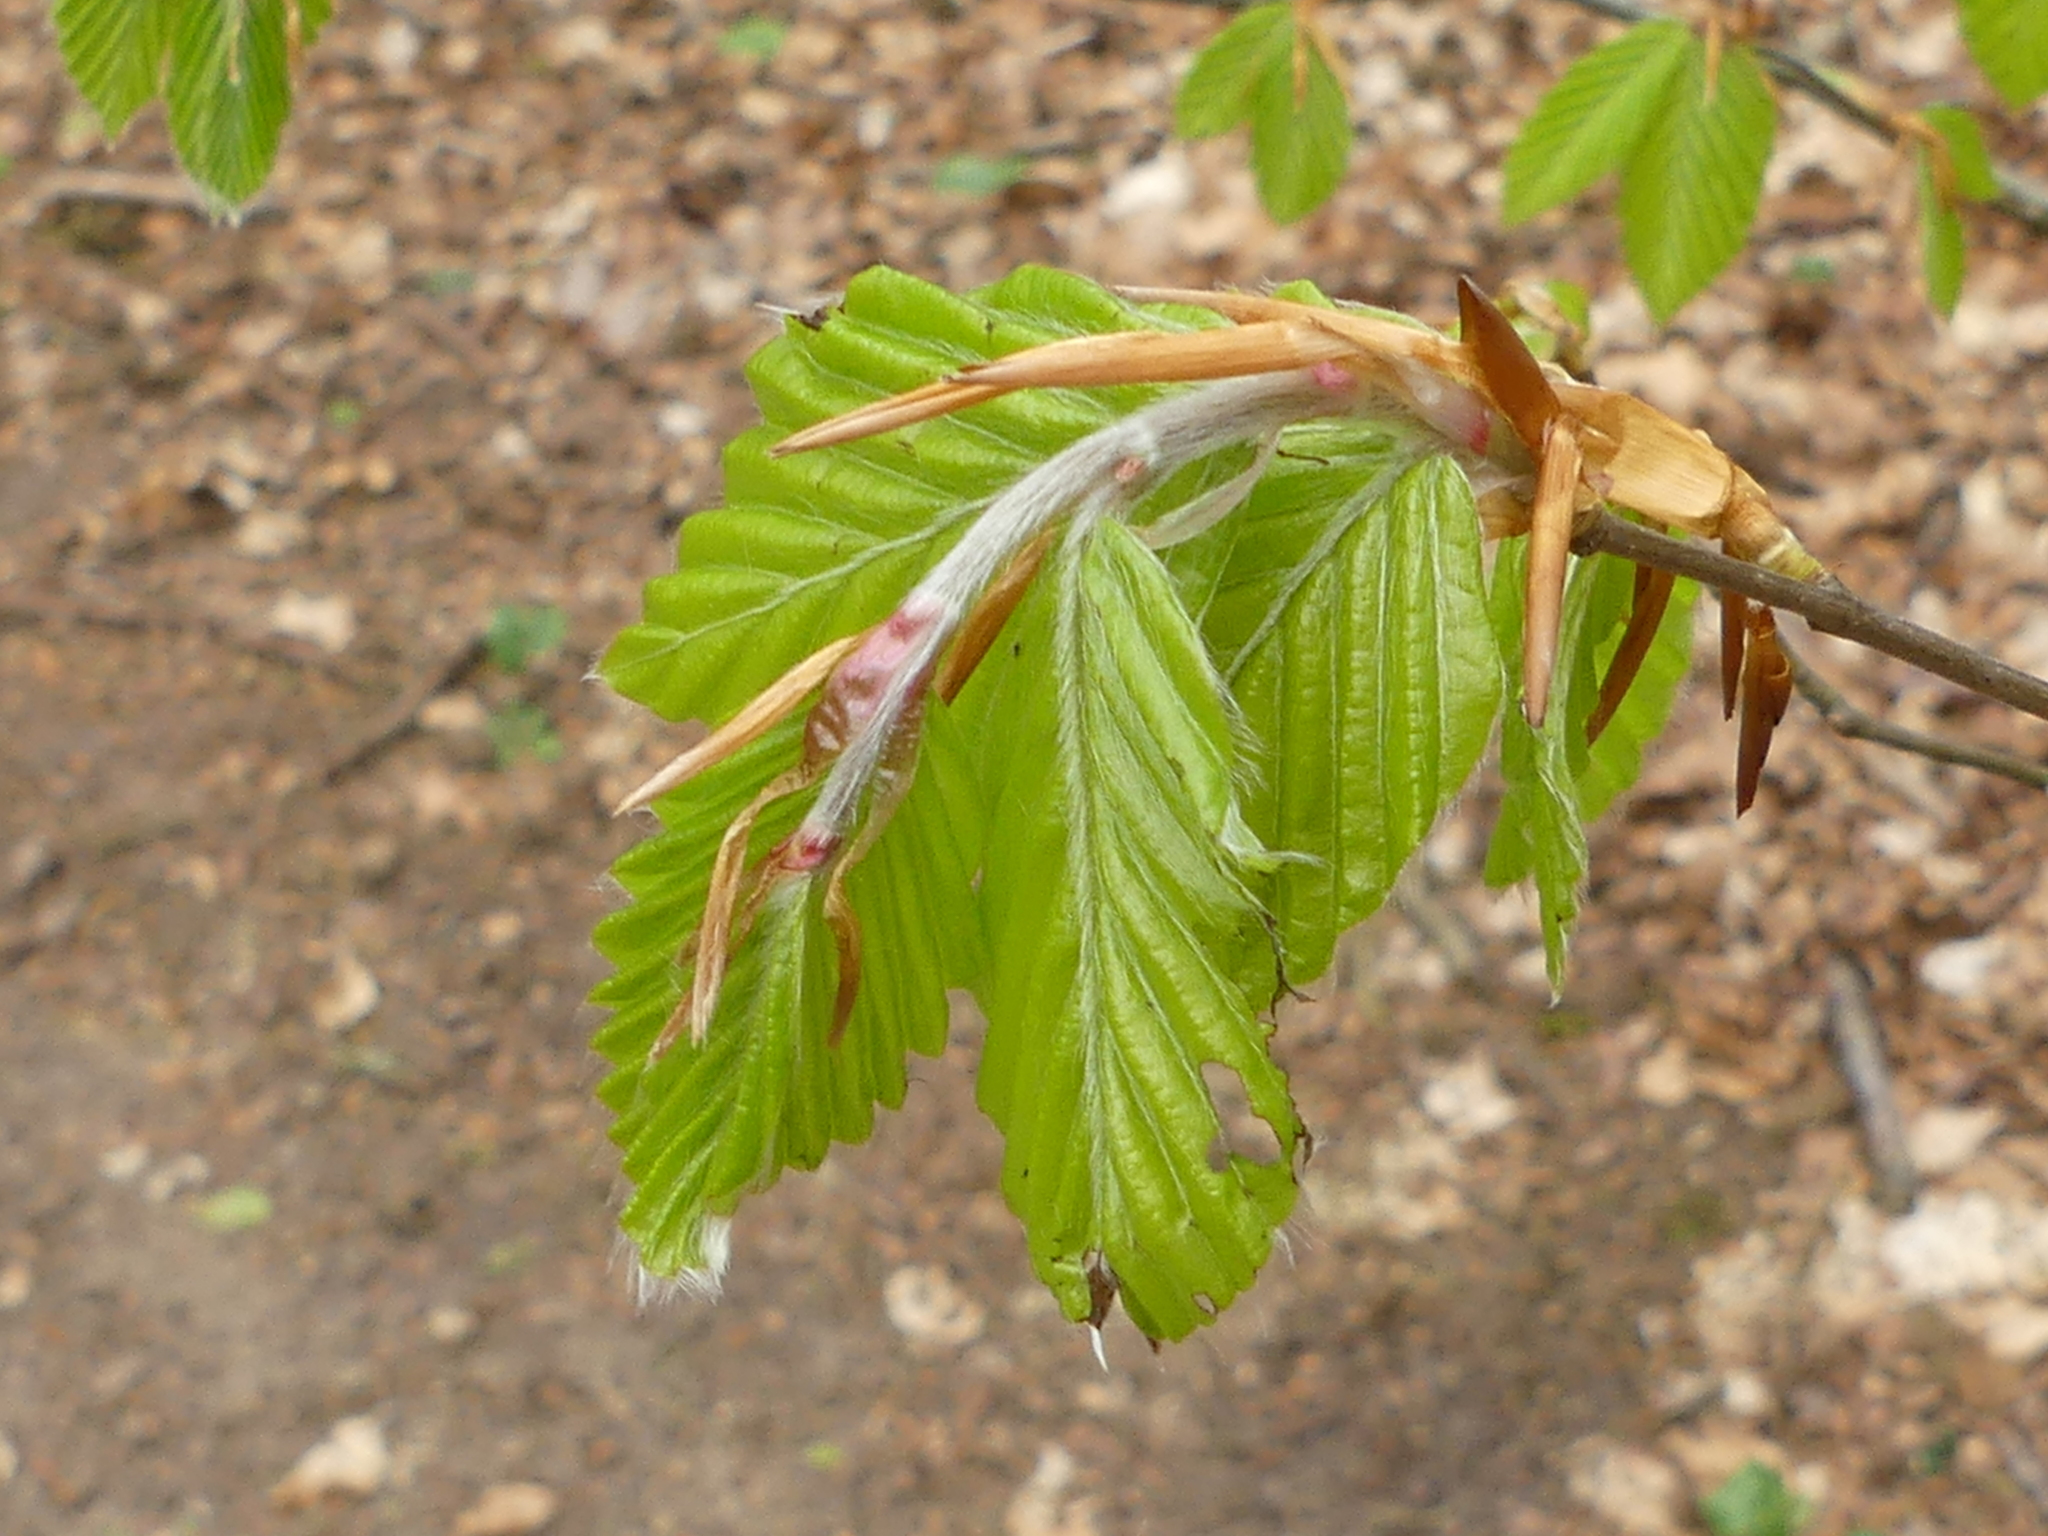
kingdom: Plantae
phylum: Tracheophyta
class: Magnoliopsida
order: Fagales
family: Fagaceae
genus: Fagus
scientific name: Fagus sylvatica
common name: Beech
